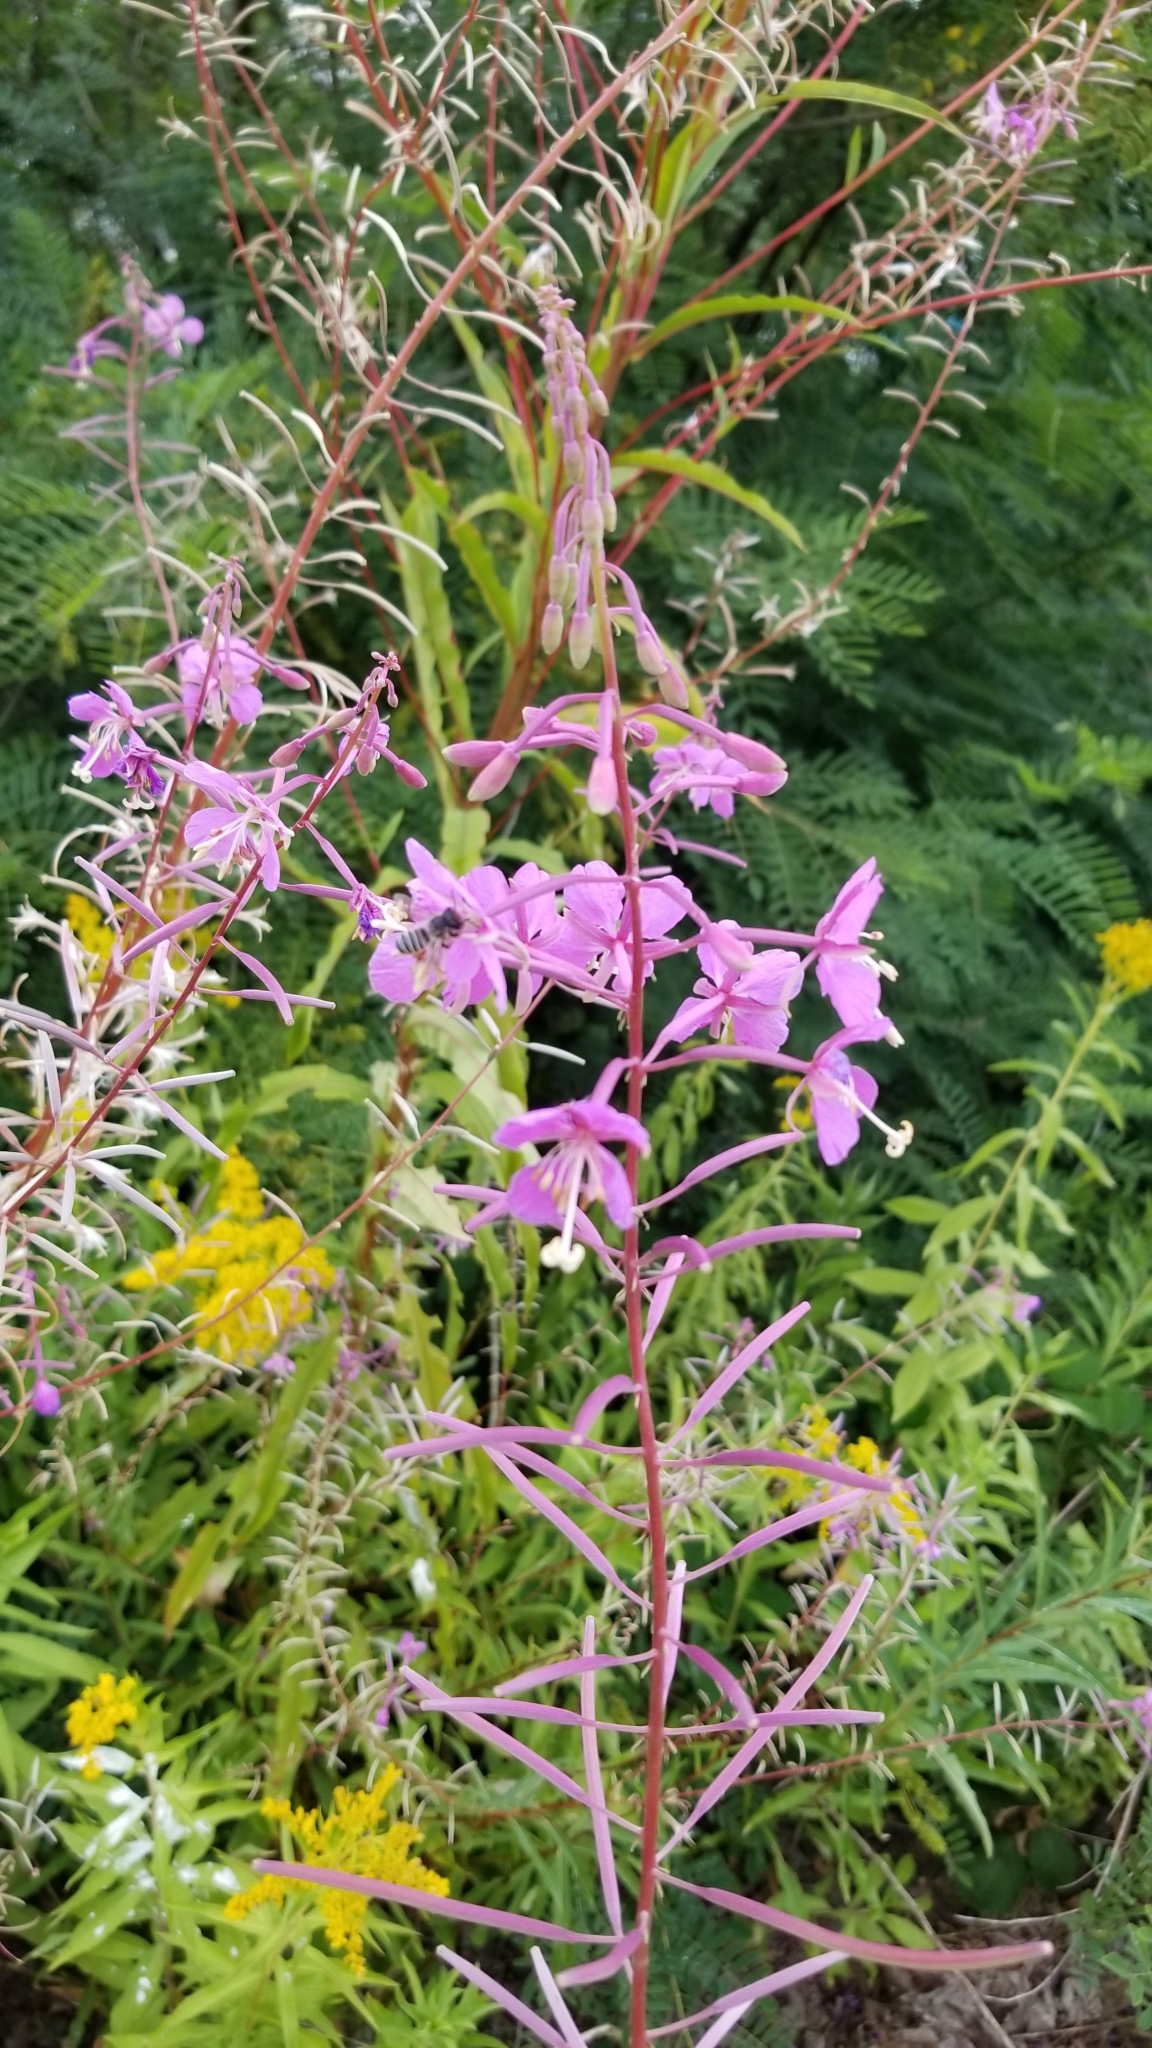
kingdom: Plantae
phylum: Tracheophyta
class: Magnoliopsida
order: Myrtales
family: Onagraceae
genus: Chamaenerion
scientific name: Chamaenerion angustifolium
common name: Fireweed
